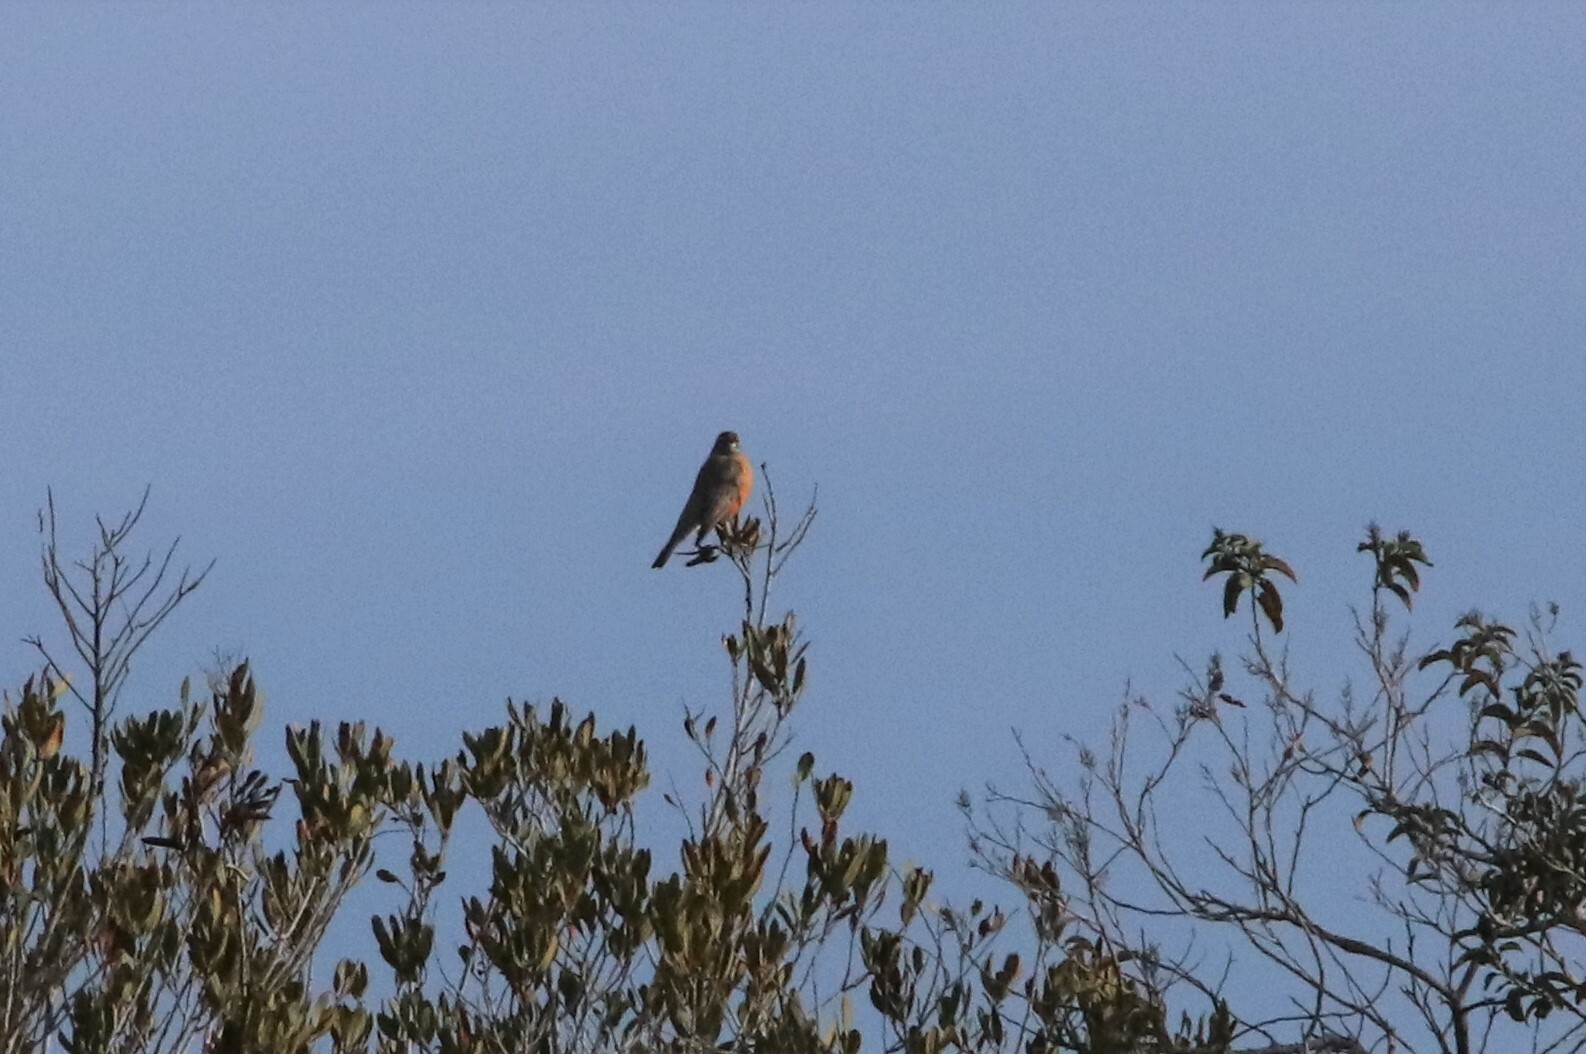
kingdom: Animalia
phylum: Chordata
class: Aves
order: Passeriformes
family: Turdidae
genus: Turdus
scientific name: Turdus migratorius
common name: American robin
